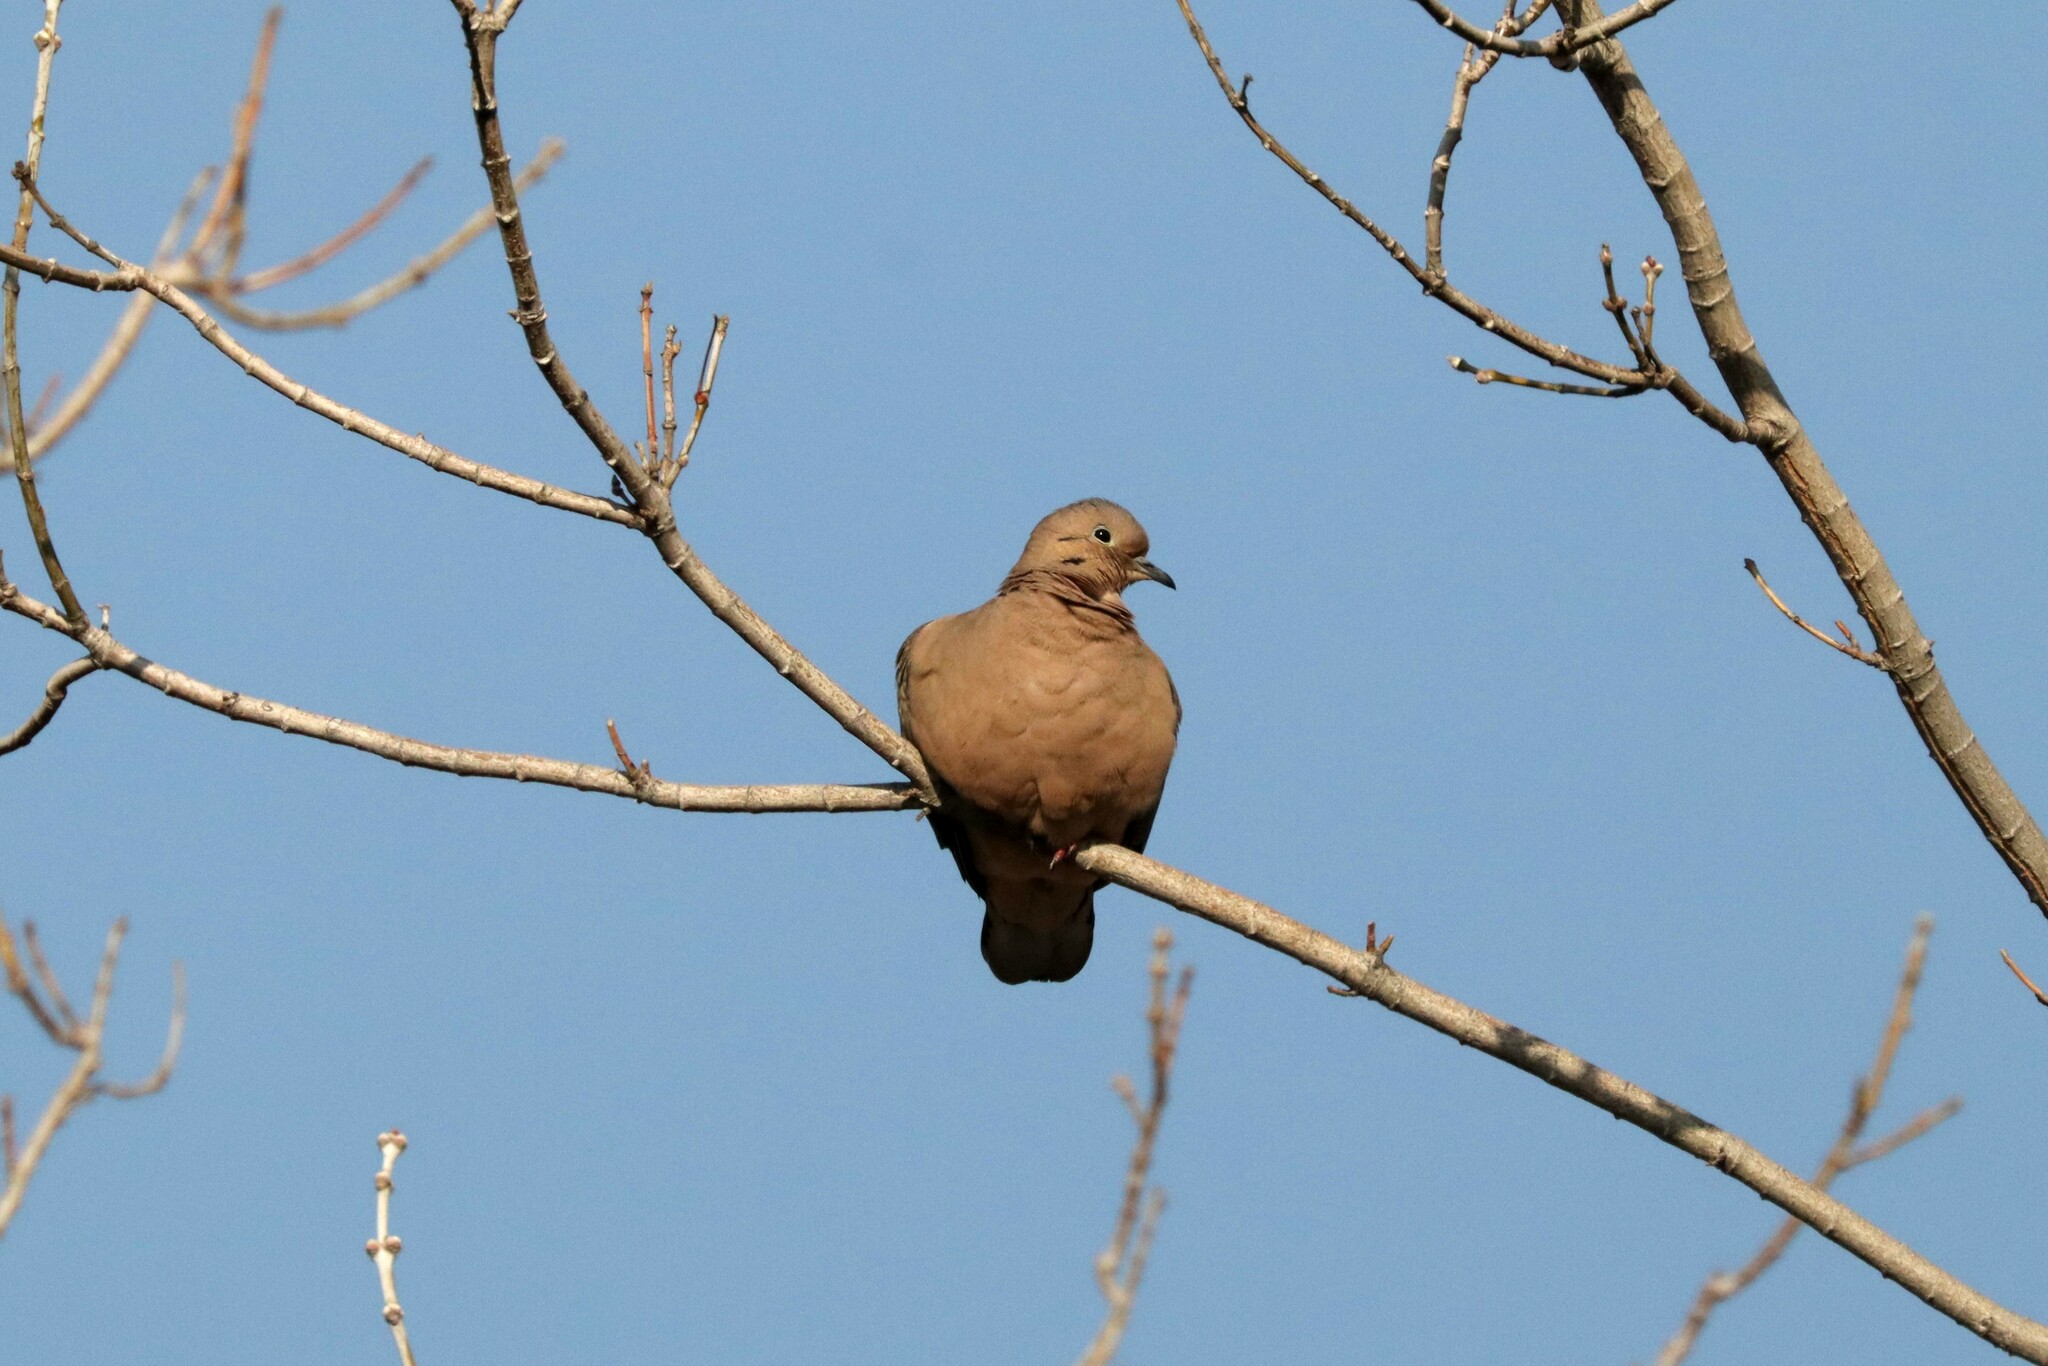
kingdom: Animalia
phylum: Chordata
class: Aves
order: Columbiformes
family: Columbidae
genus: Zenaida
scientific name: Zenaida auriculata
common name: Eared dove
